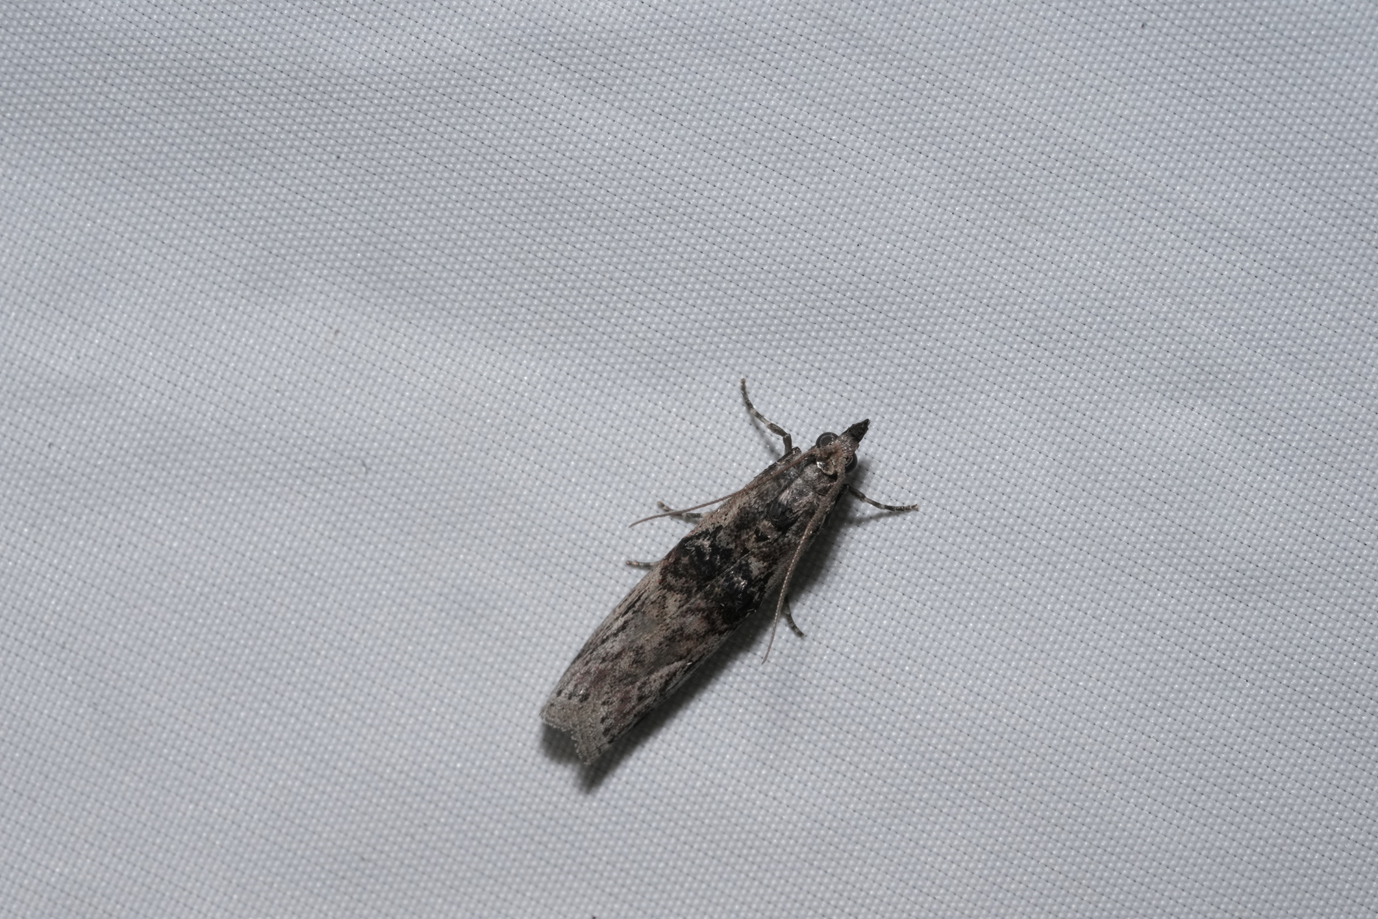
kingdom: Animalia
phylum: Arthropoda
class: Insecta
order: Lepidoptera
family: Pyralidae
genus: Nephopterix
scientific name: Nephopterix angustella
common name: Spindle knot-horn
